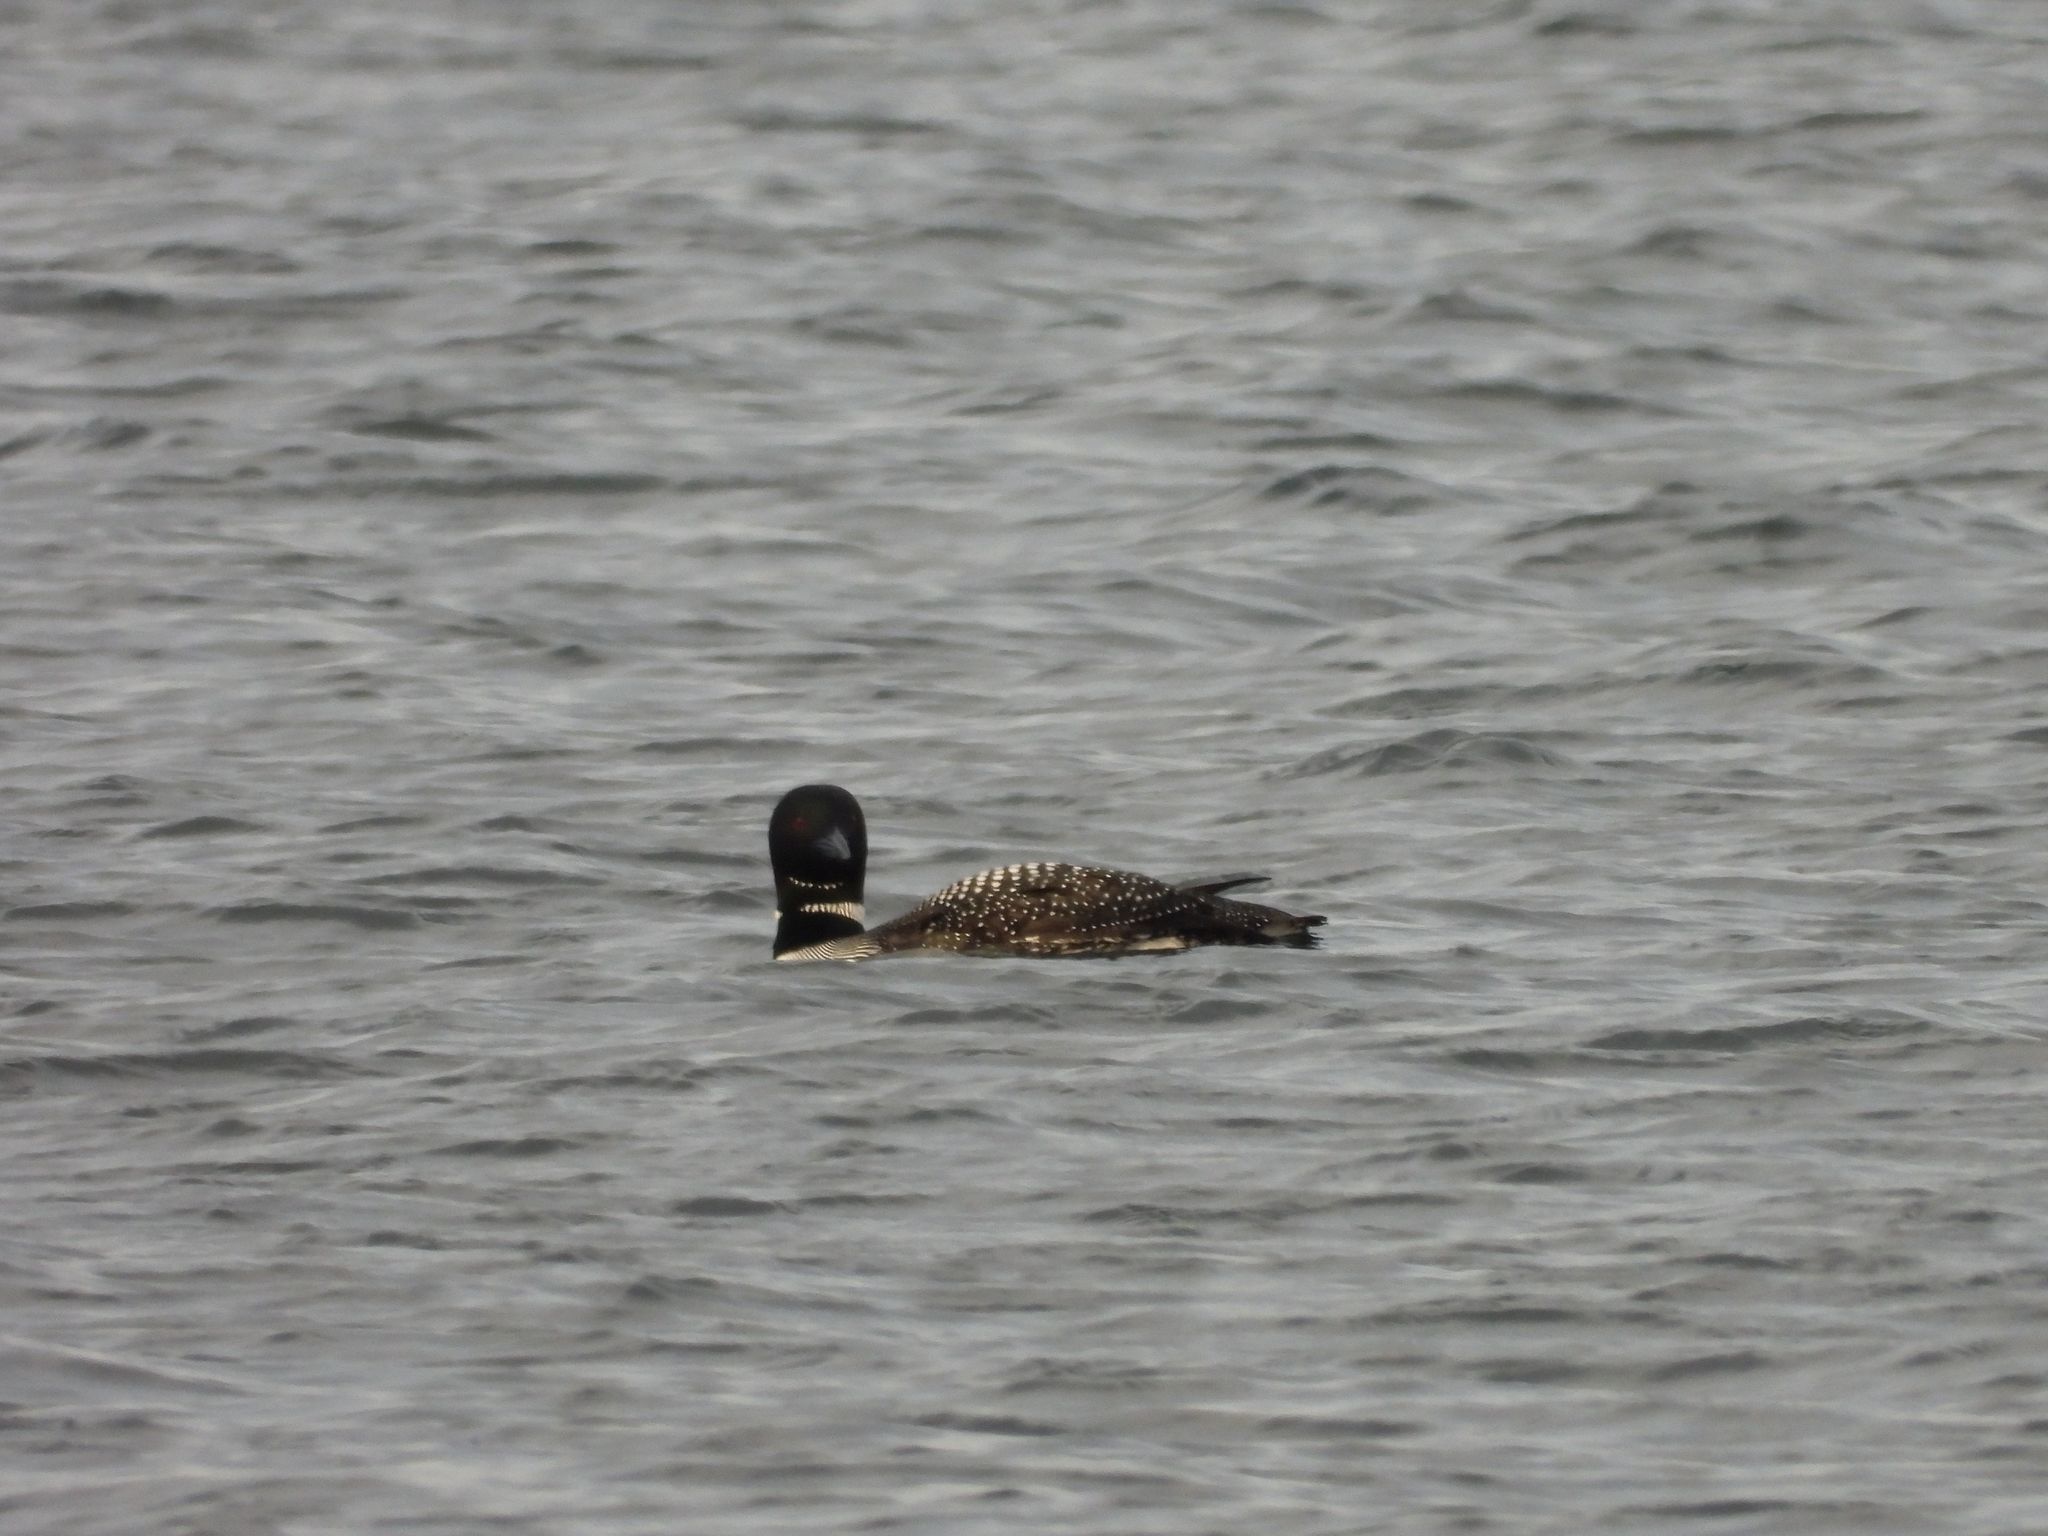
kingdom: Animalia
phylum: Chordata
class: Aves
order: Gaviiformes
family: Gaviidae
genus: Gavia
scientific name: Gavia immer
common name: Common loon
